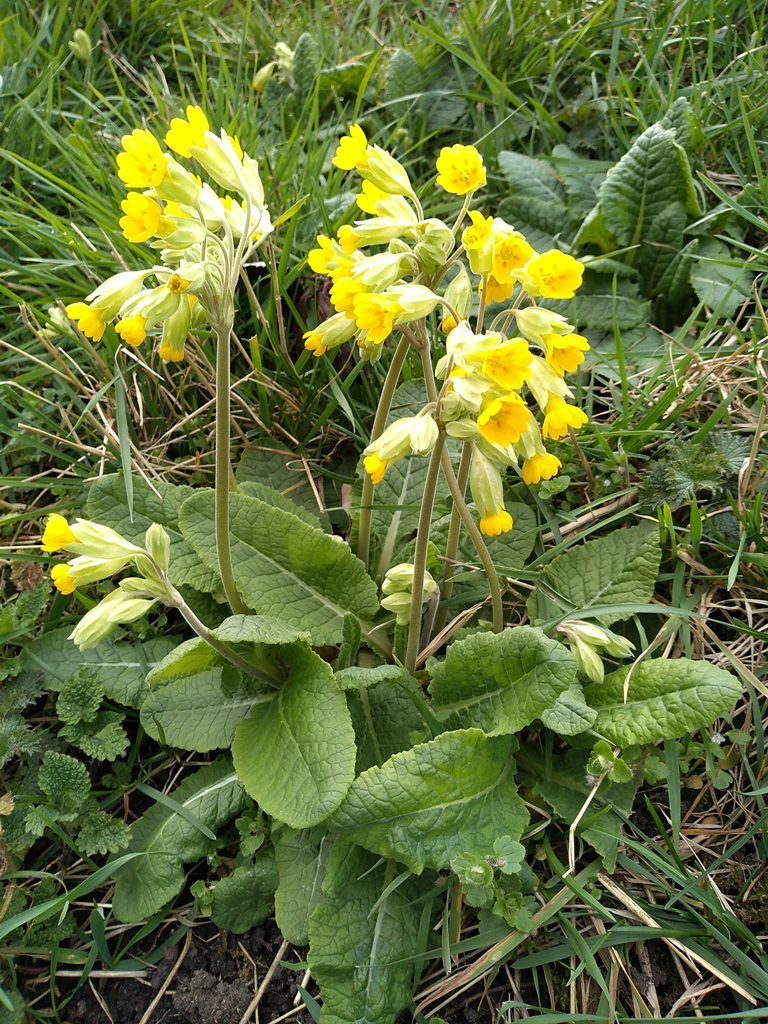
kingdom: Plantae
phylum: Tracheophyta
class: Magnoliopsida
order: Ericales
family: Primulaceae
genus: Primula
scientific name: Primula veris
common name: Cowslip
